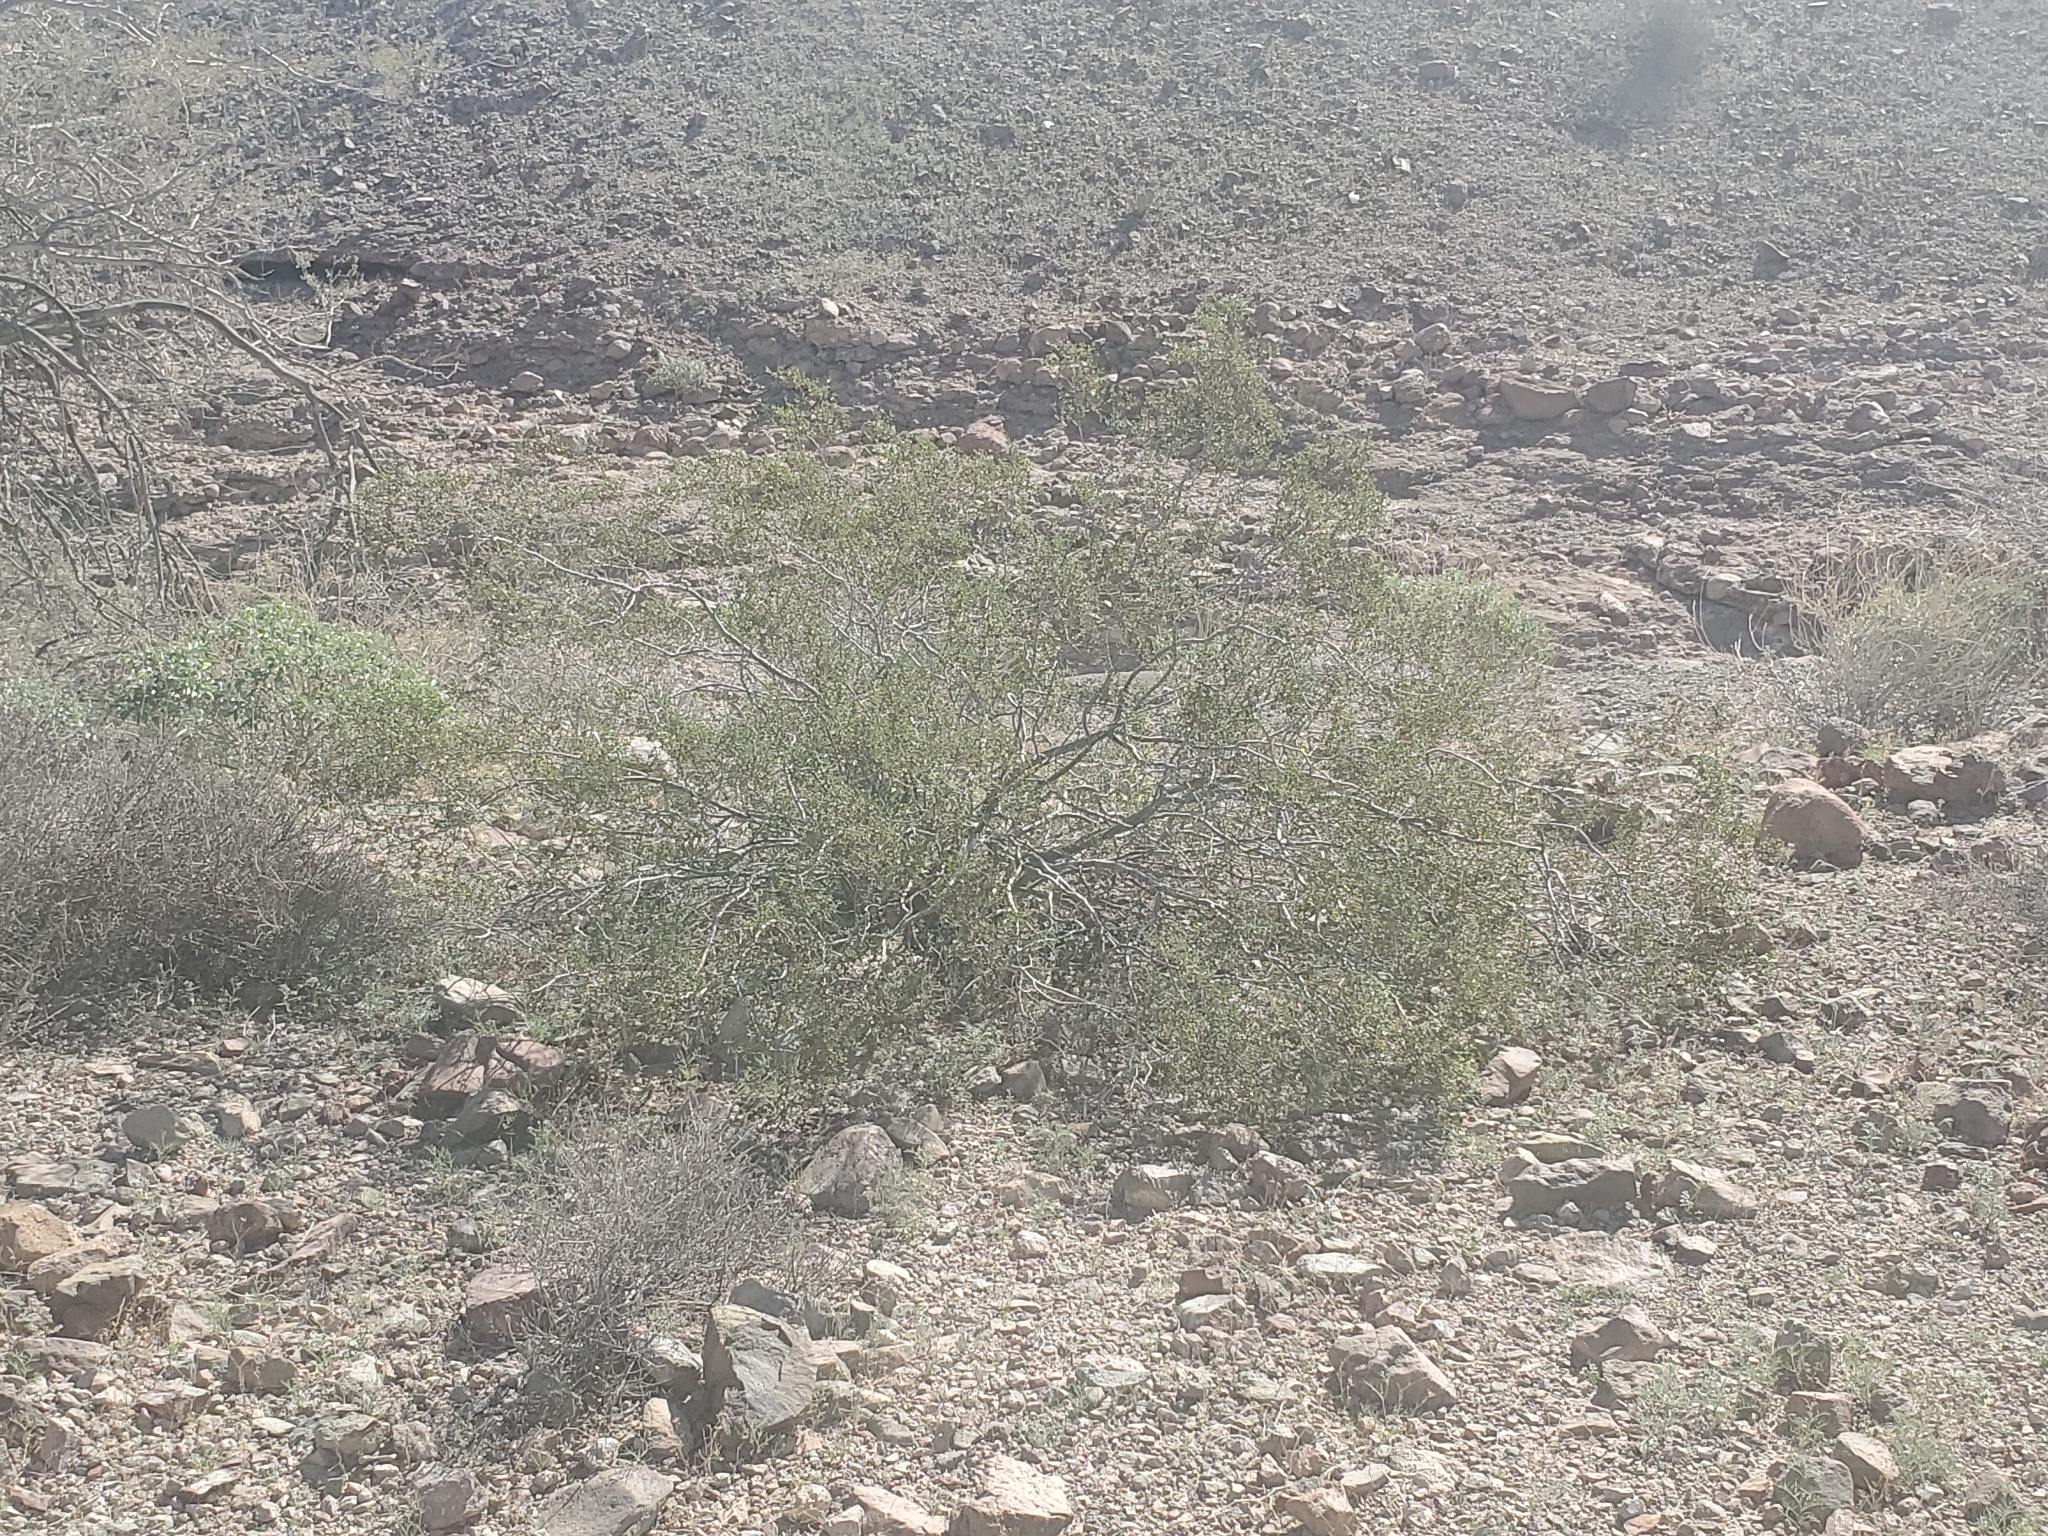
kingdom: Plantae
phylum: Tracheophyta
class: Magnoliopsida
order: Zygophyllales
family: Zygophyllaceae
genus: Larrea
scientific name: Larrea tridentata
